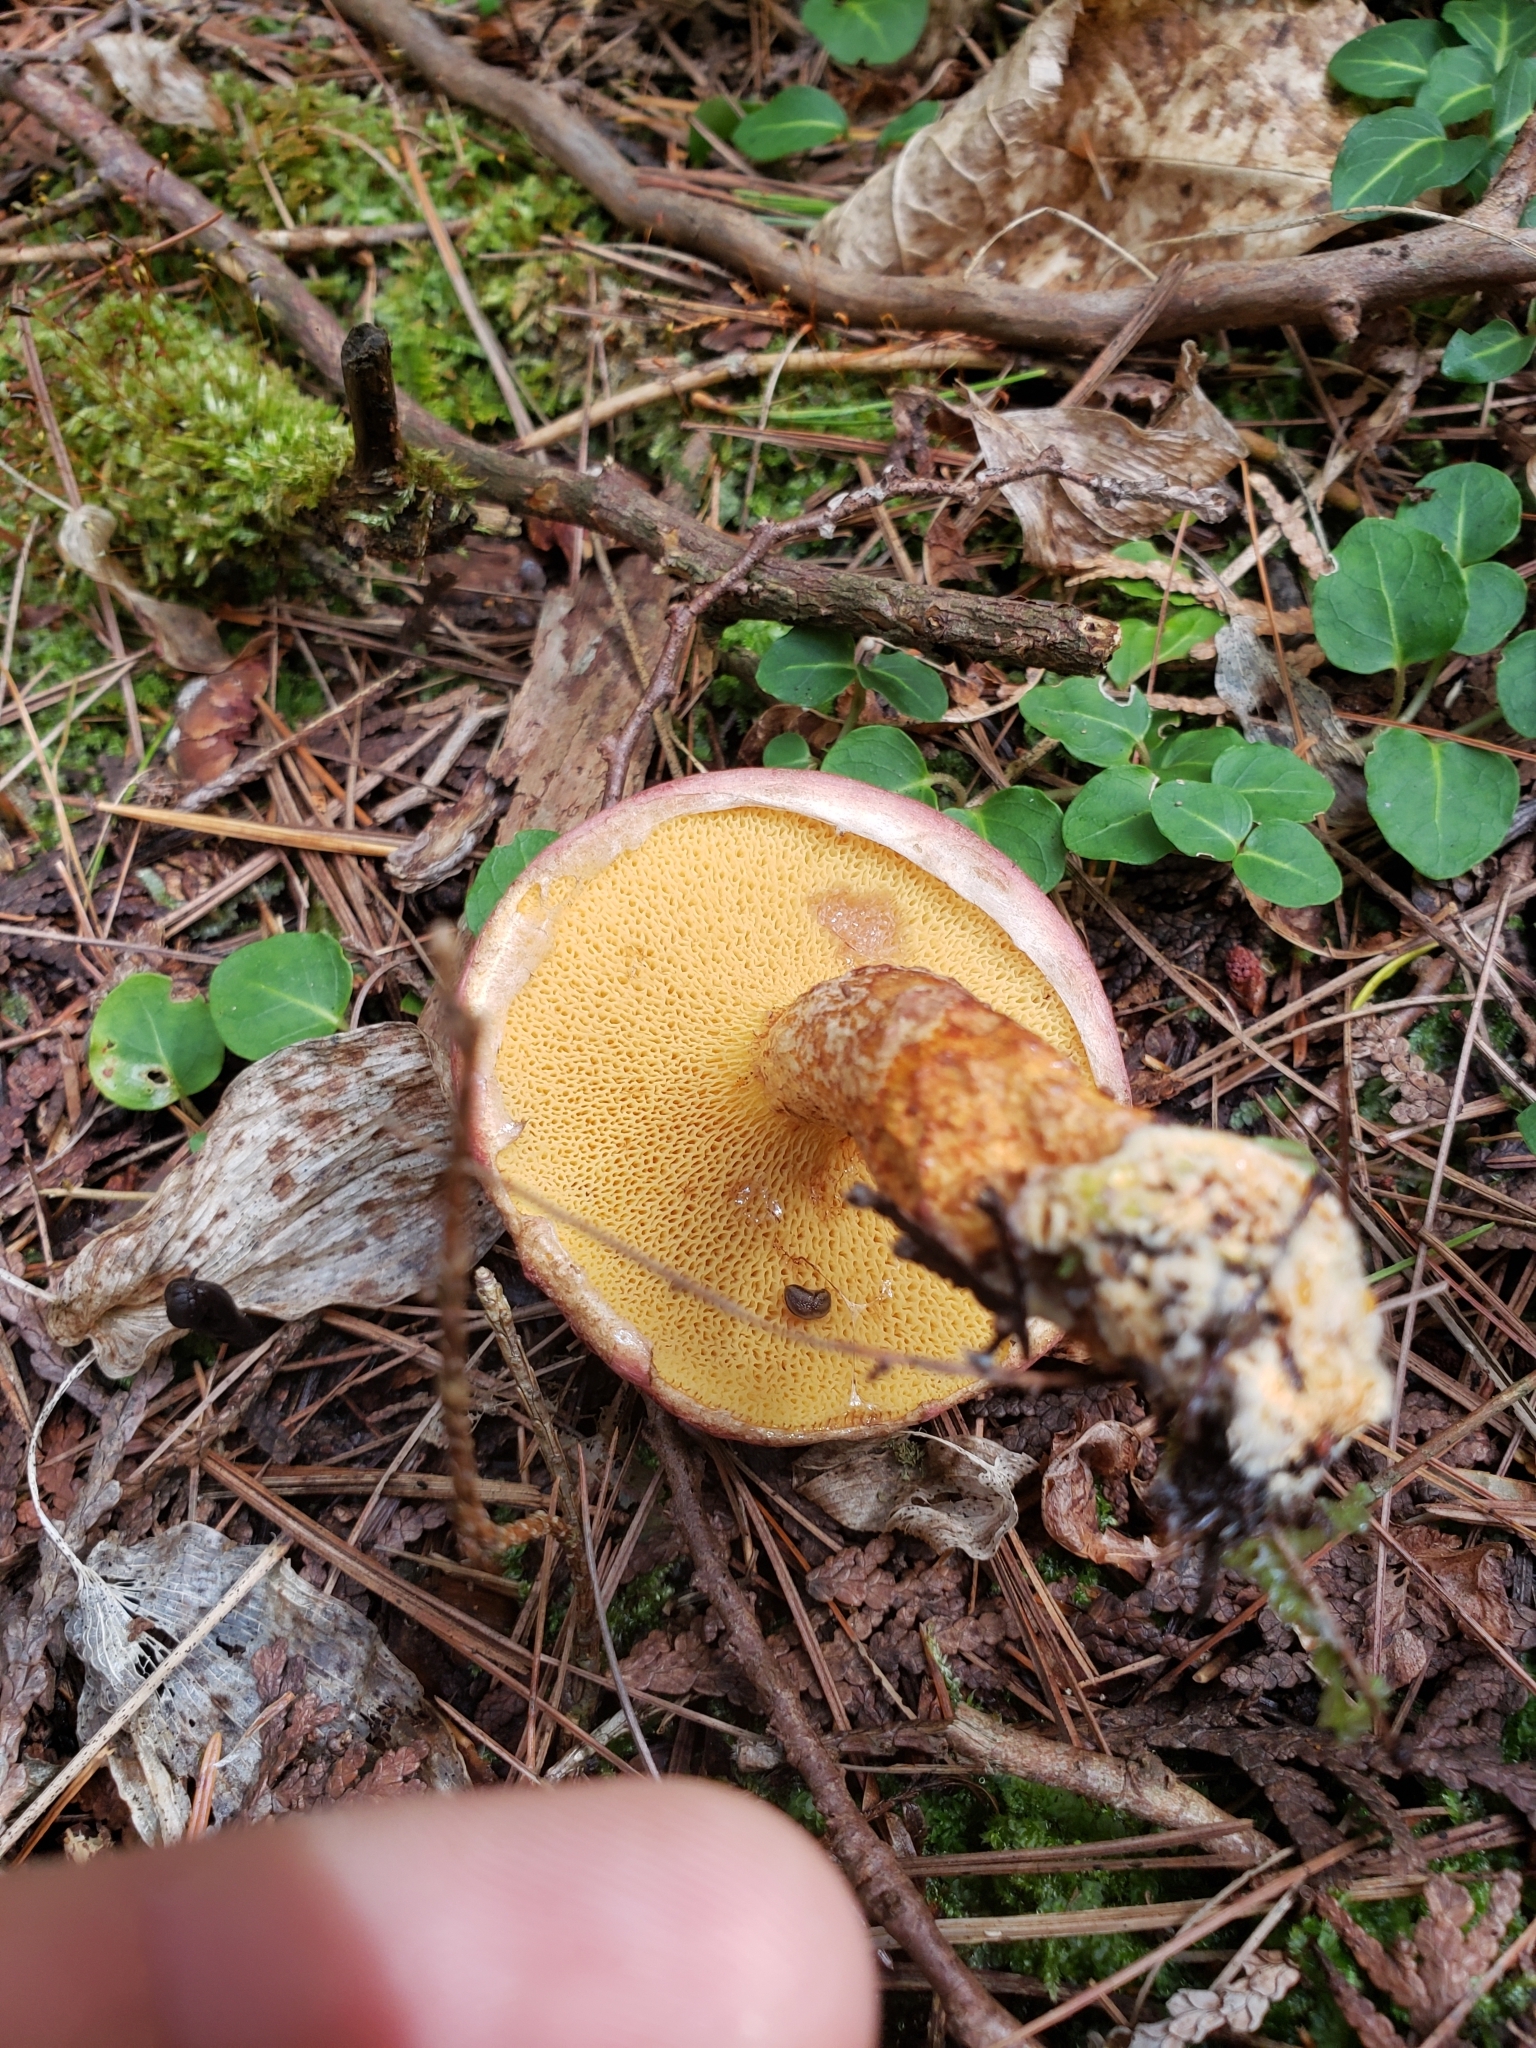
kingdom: Fungi
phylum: Basidiomycota
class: Agaricomycetes
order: Boletales
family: Suillaceae
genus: Suillus
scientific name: Suillus spraguei
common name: Painted suillus
